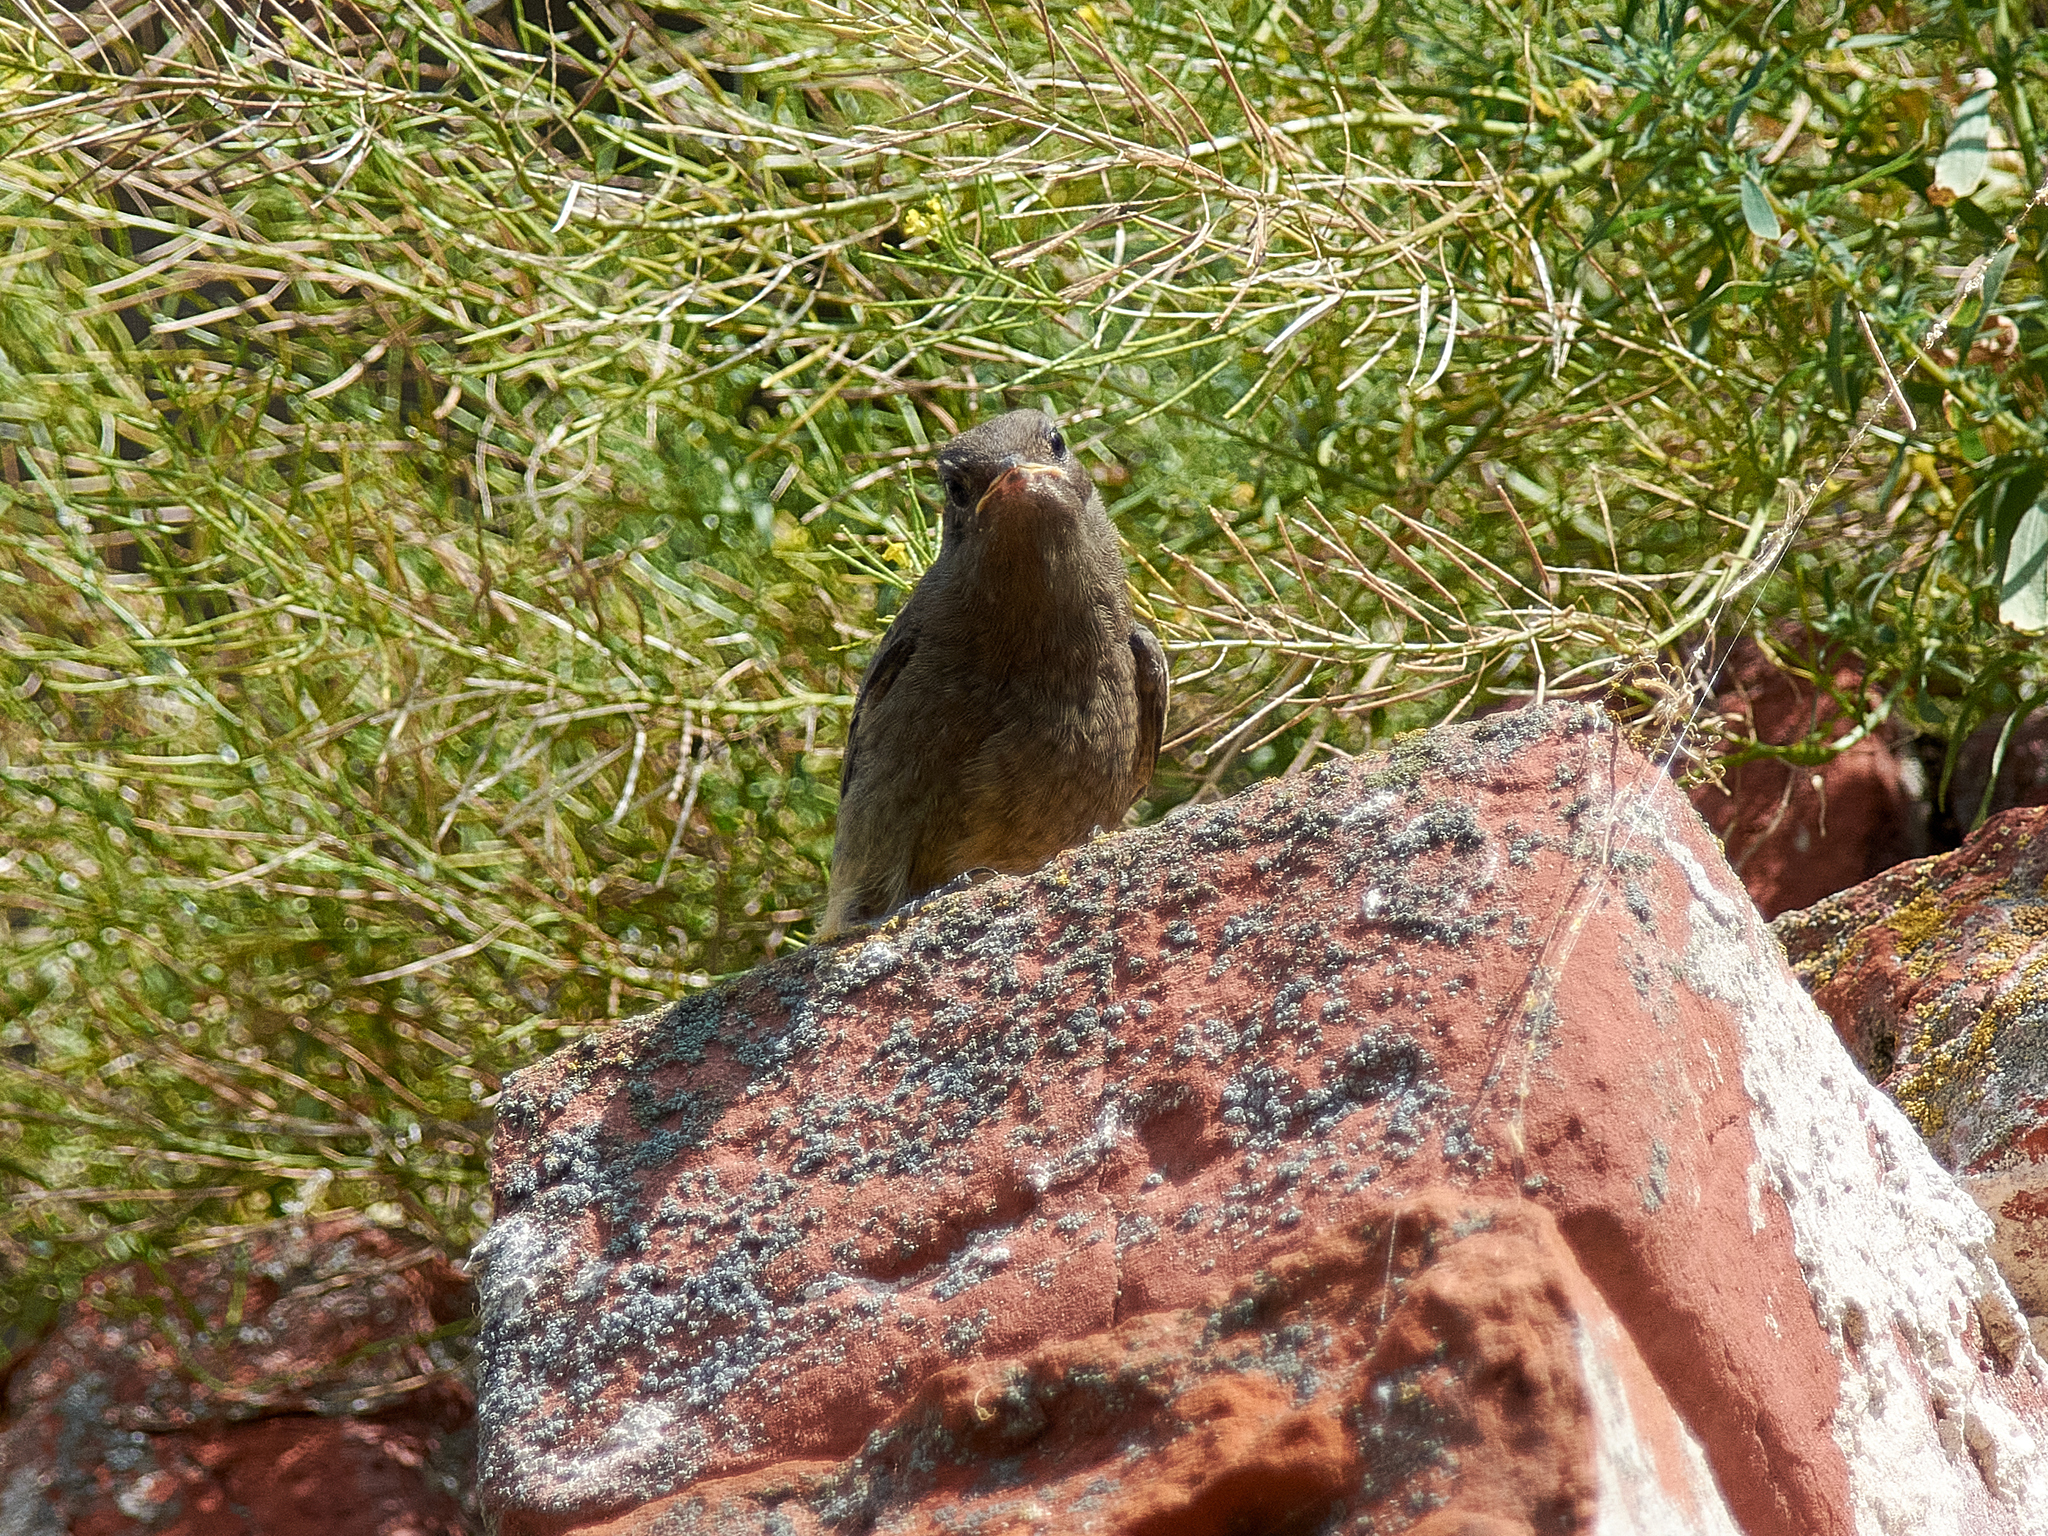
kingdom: Animalia
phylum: Chordata
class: Aves
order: Passeriformes
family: Muscicapidae
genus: Phoenicurus
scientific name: Phoenicurus ochruros
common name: Black redstart
